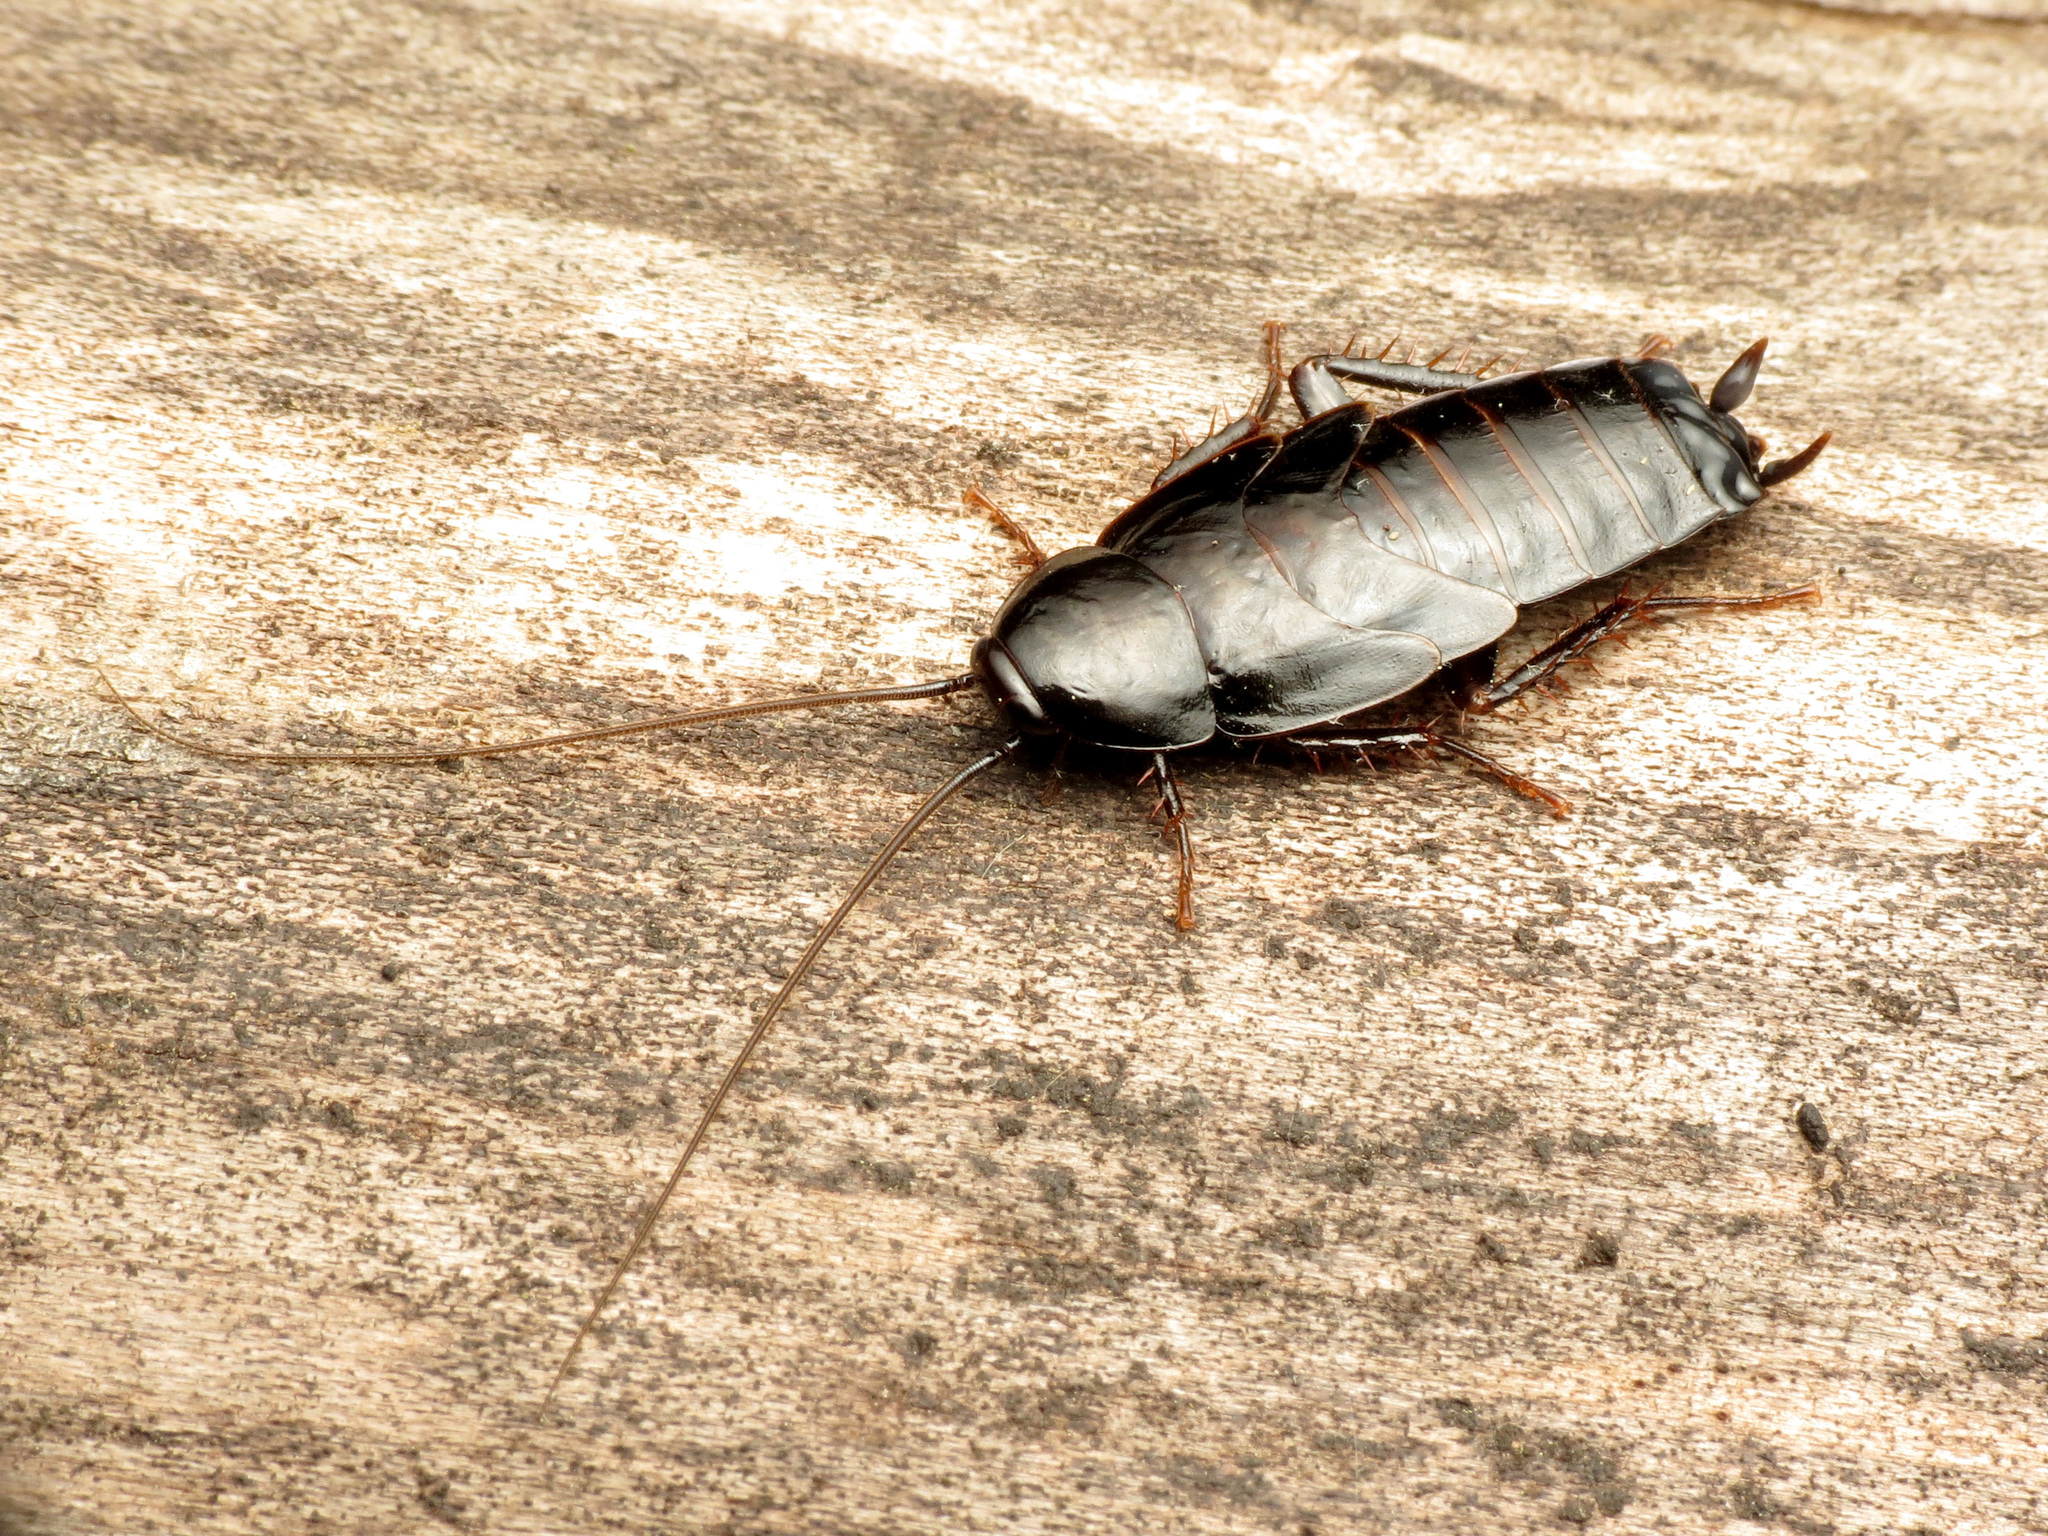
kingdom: Animalia
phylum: Arthropoda
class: Insecta
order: Blattodea
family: Blattidae
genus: Blatta
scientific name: Blatta orientalis
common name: Oriental cockroach
